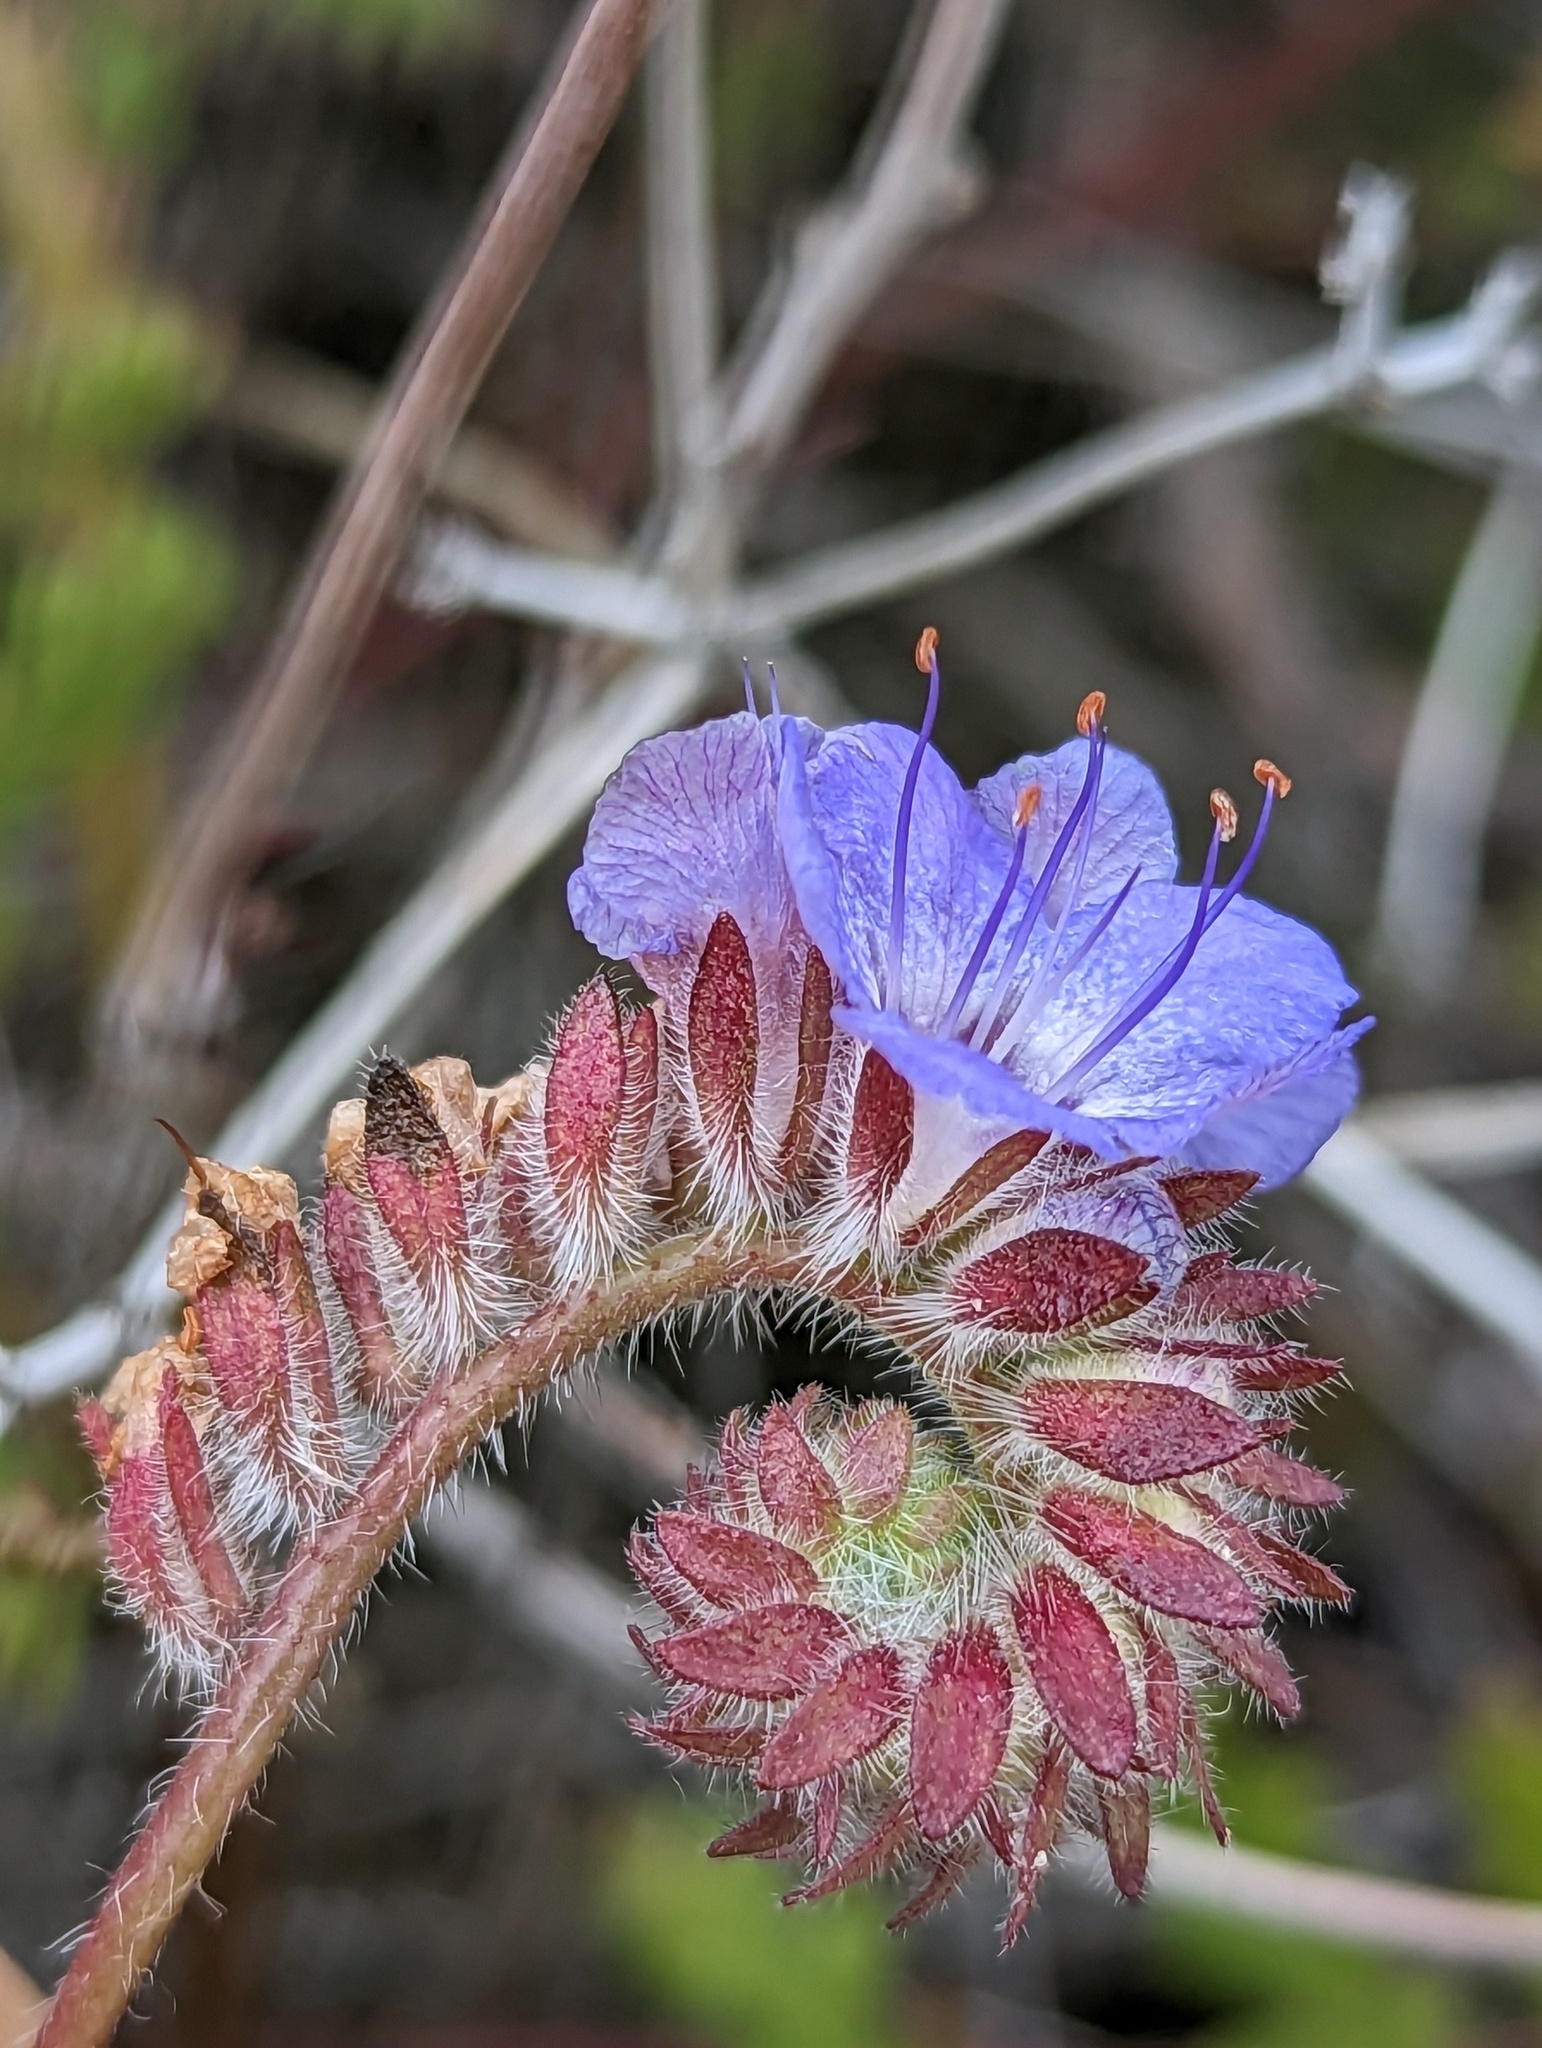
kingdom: Plantae
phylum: Tracheophyta
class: Magnoliopsida
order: Boraginales
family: Hydrophyllaceae
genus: Phacelia
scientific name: Phacelia distans
